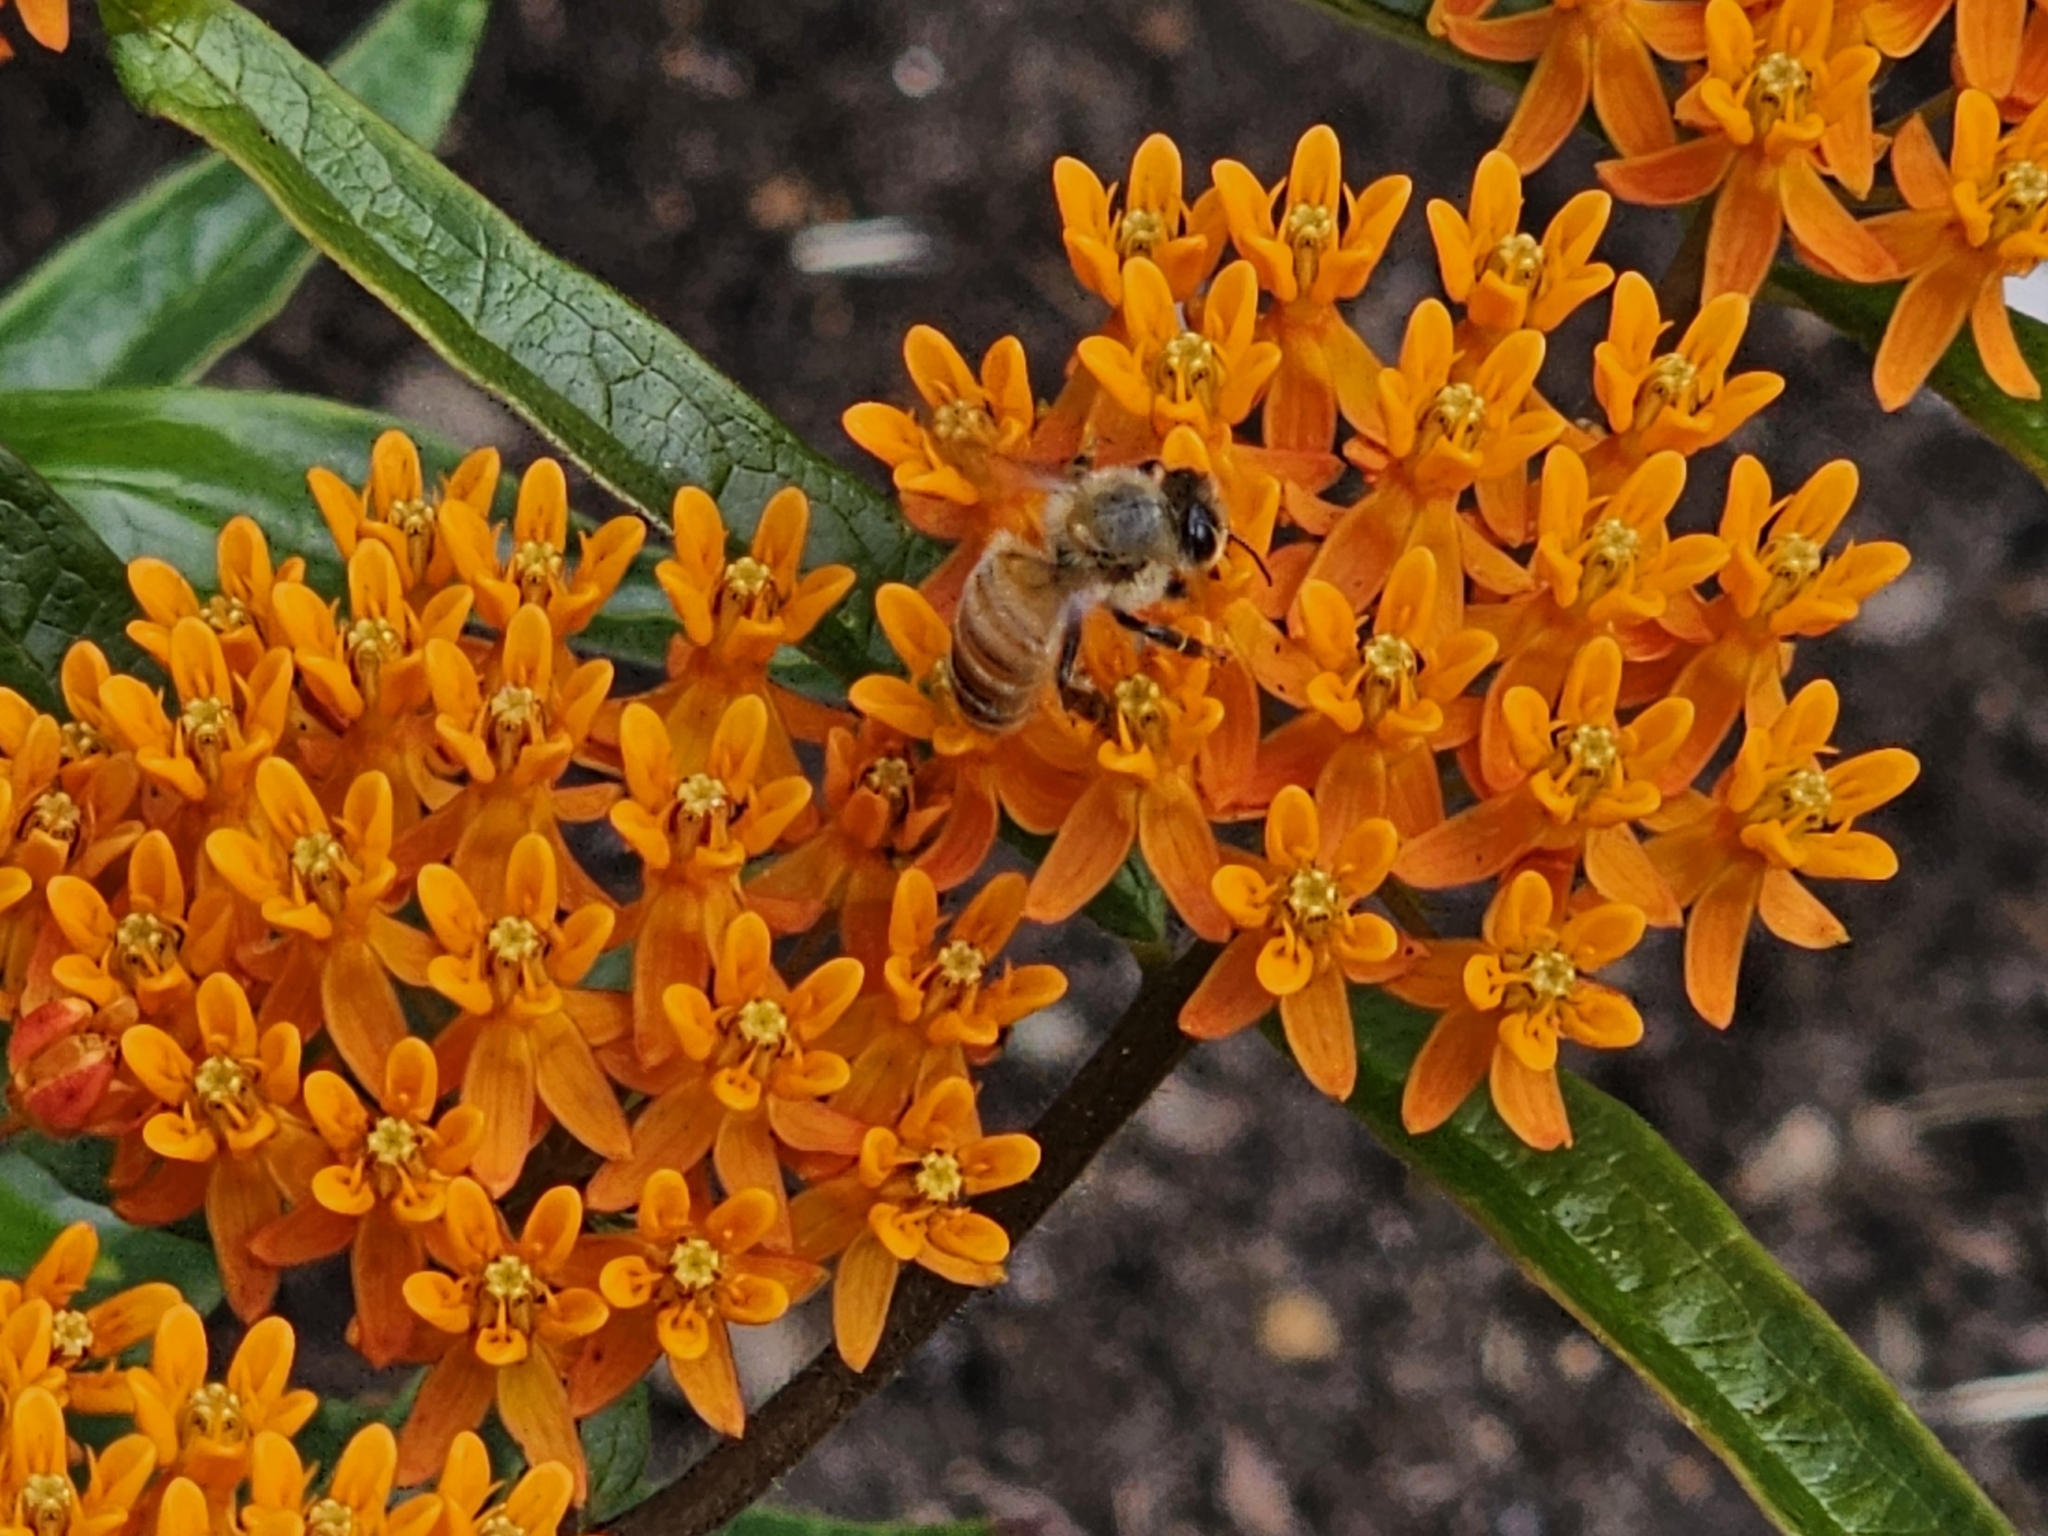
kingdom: Animalia
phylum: Arthropoda
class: Insecta
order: Hymenoptera
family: Apidae
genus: Apis
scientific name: Apis mellifera
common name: Honey bee
